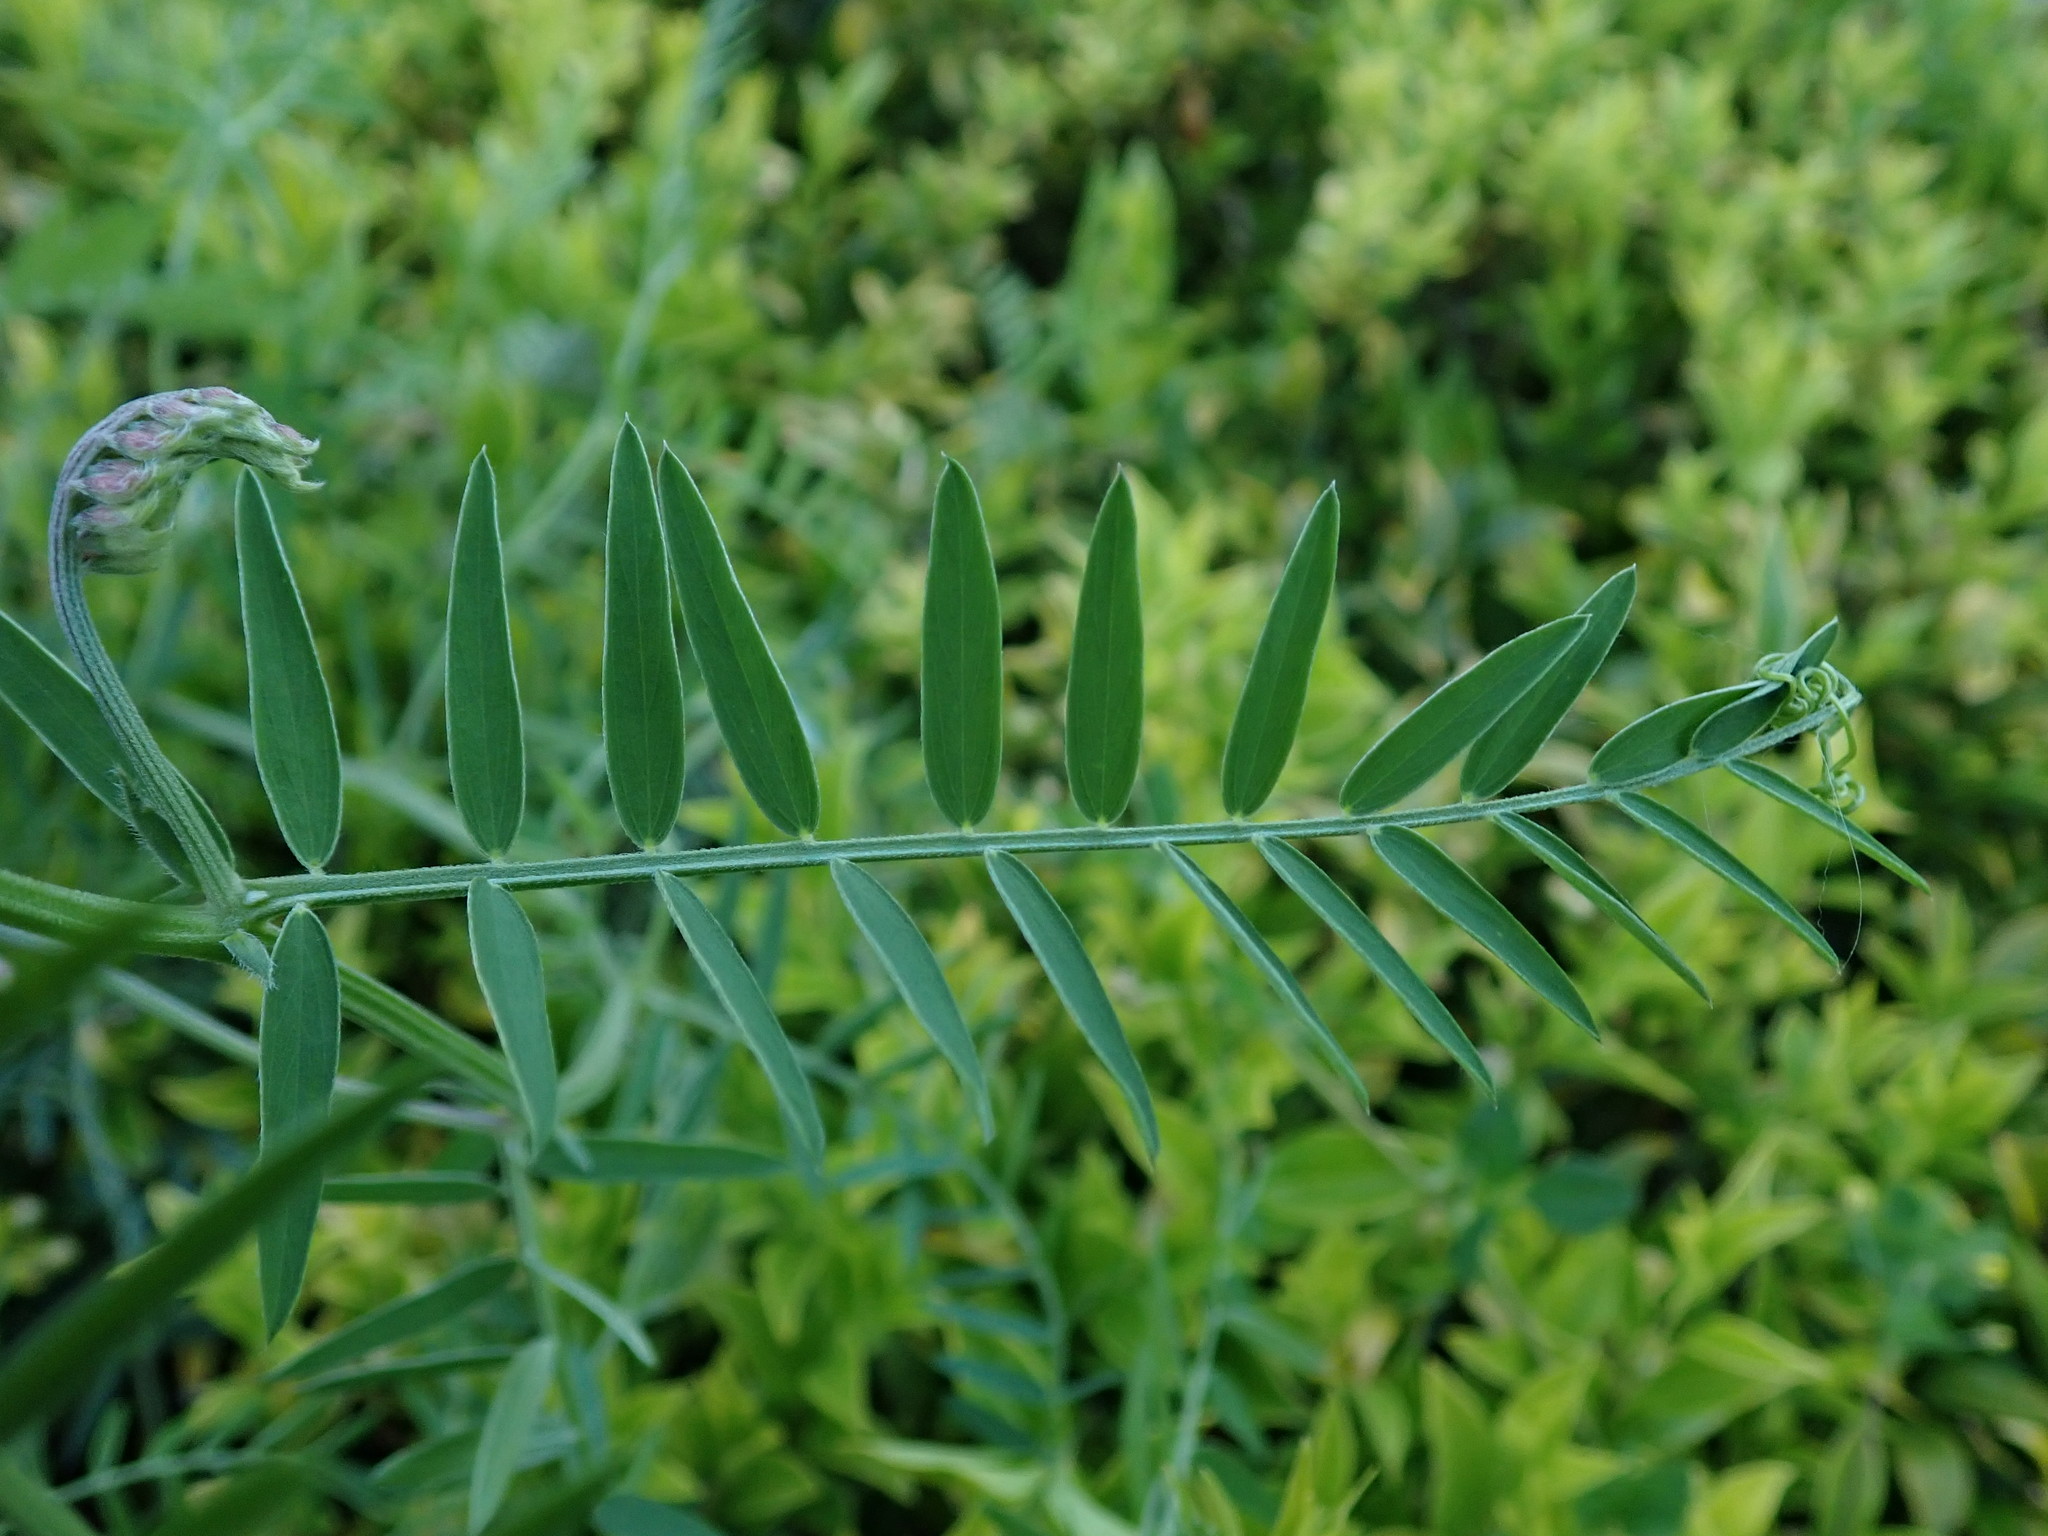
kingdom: Plantae
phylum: Tracheophyta
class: Magnoliopsida
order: Fabales
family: Fabaceae
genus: Vicia
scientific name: Vicia cracca
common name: Bird vetch
